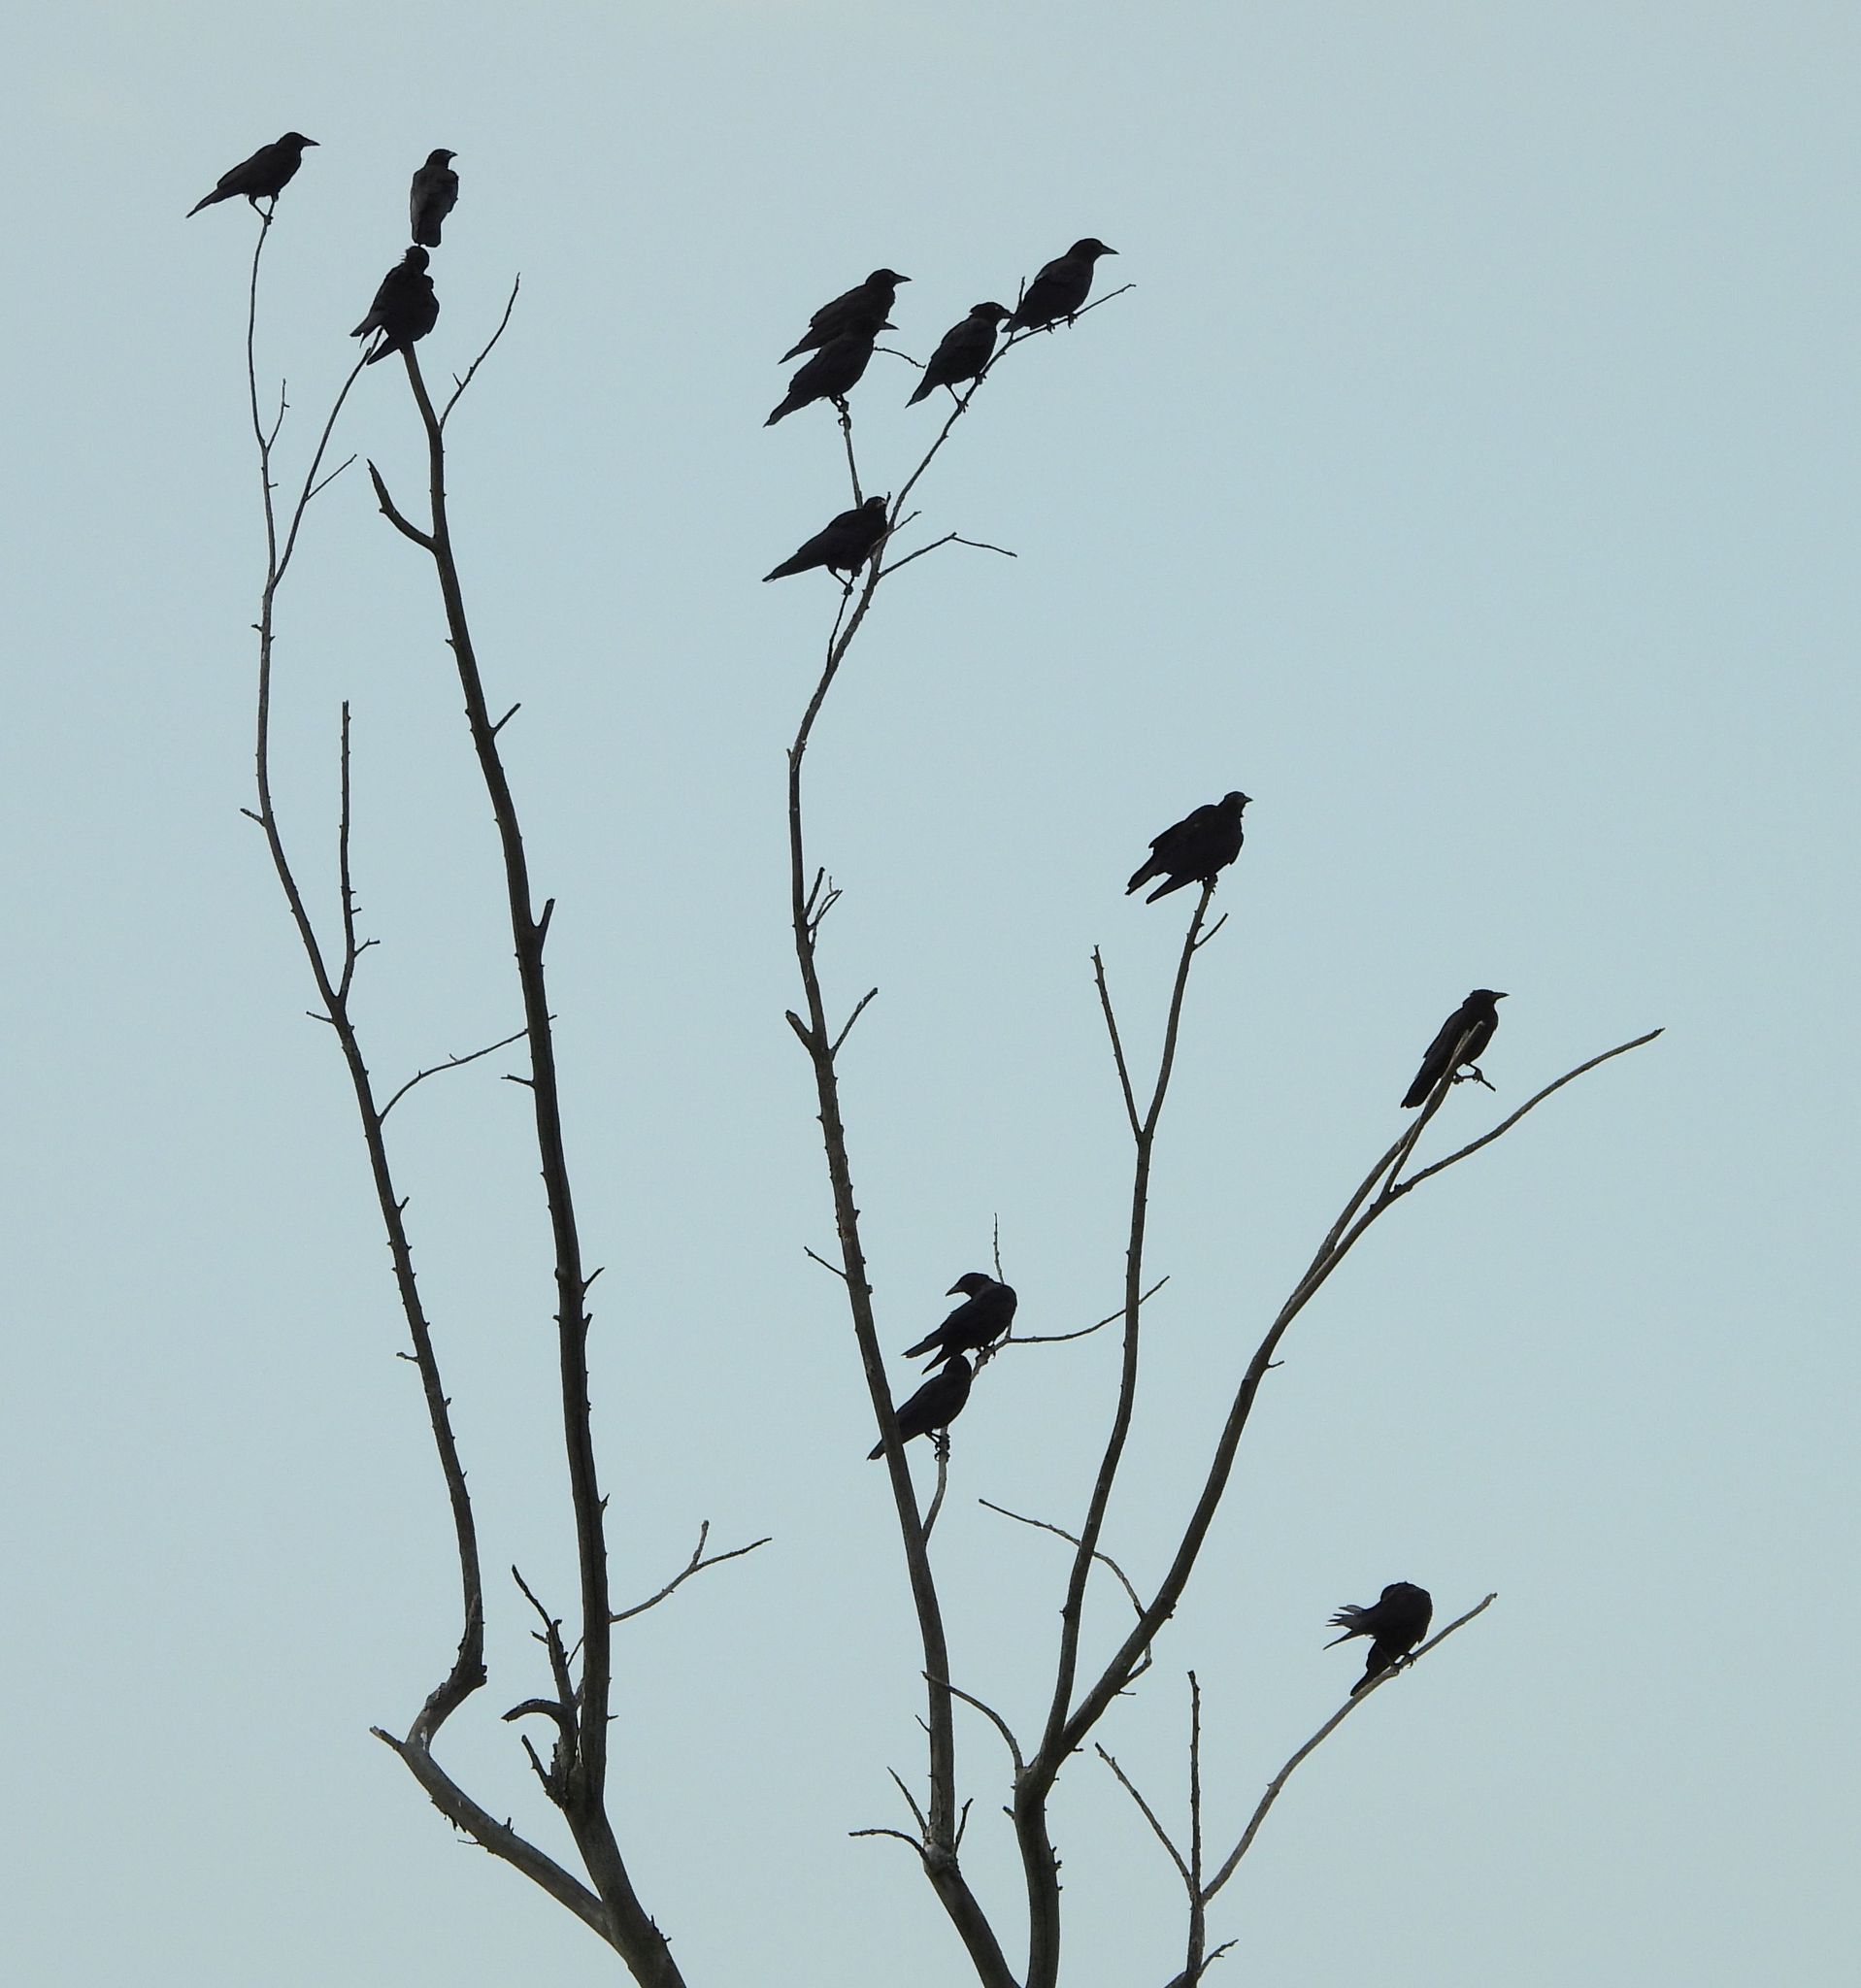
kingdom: Animalia
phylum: Chordata
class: Aves
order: Passeriformes
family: Corvidae
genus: Corvus
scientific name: Corvus brachyrhynchos
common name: American crow
